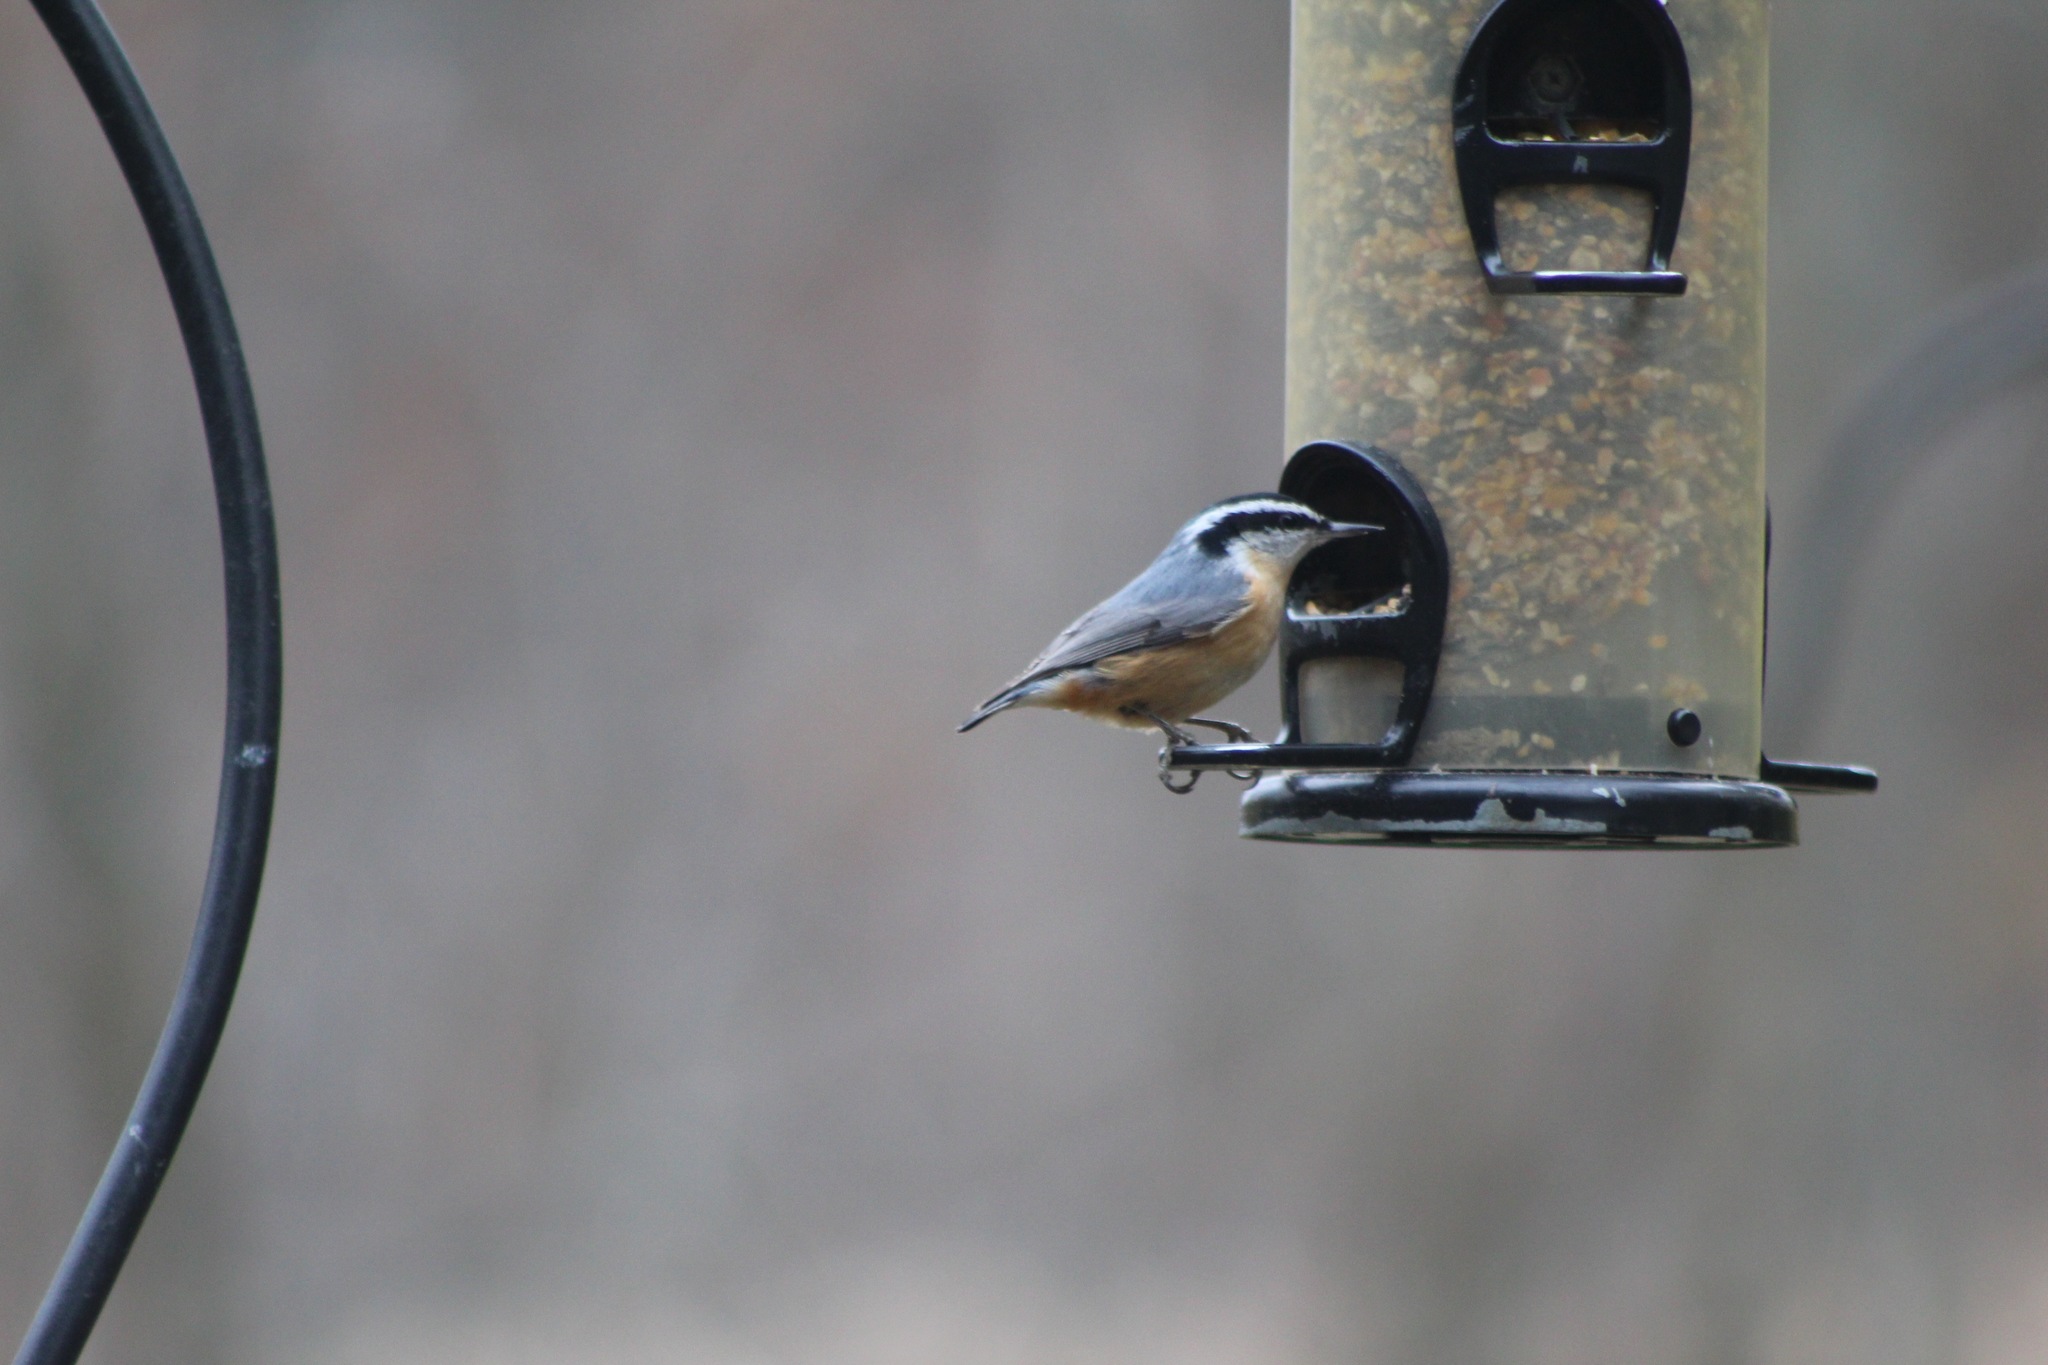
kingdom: Animalia
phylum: Chordata
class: Aves
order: Passeriformes
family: Sittidae
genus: Sitta
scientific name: Sitta canadensis
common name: Red-breasted nuthatch
